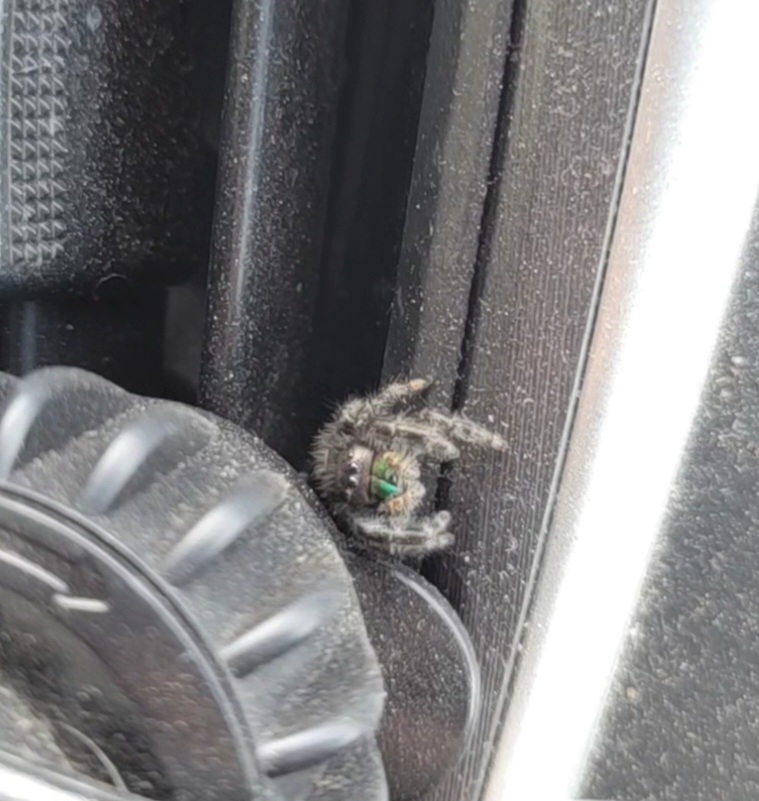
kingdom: Animalia
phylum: Arthropoda
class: Arachnida
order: Araneae
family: Salticidae
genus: Phidippus
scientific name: Phidippus audax
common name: Bold jumper
